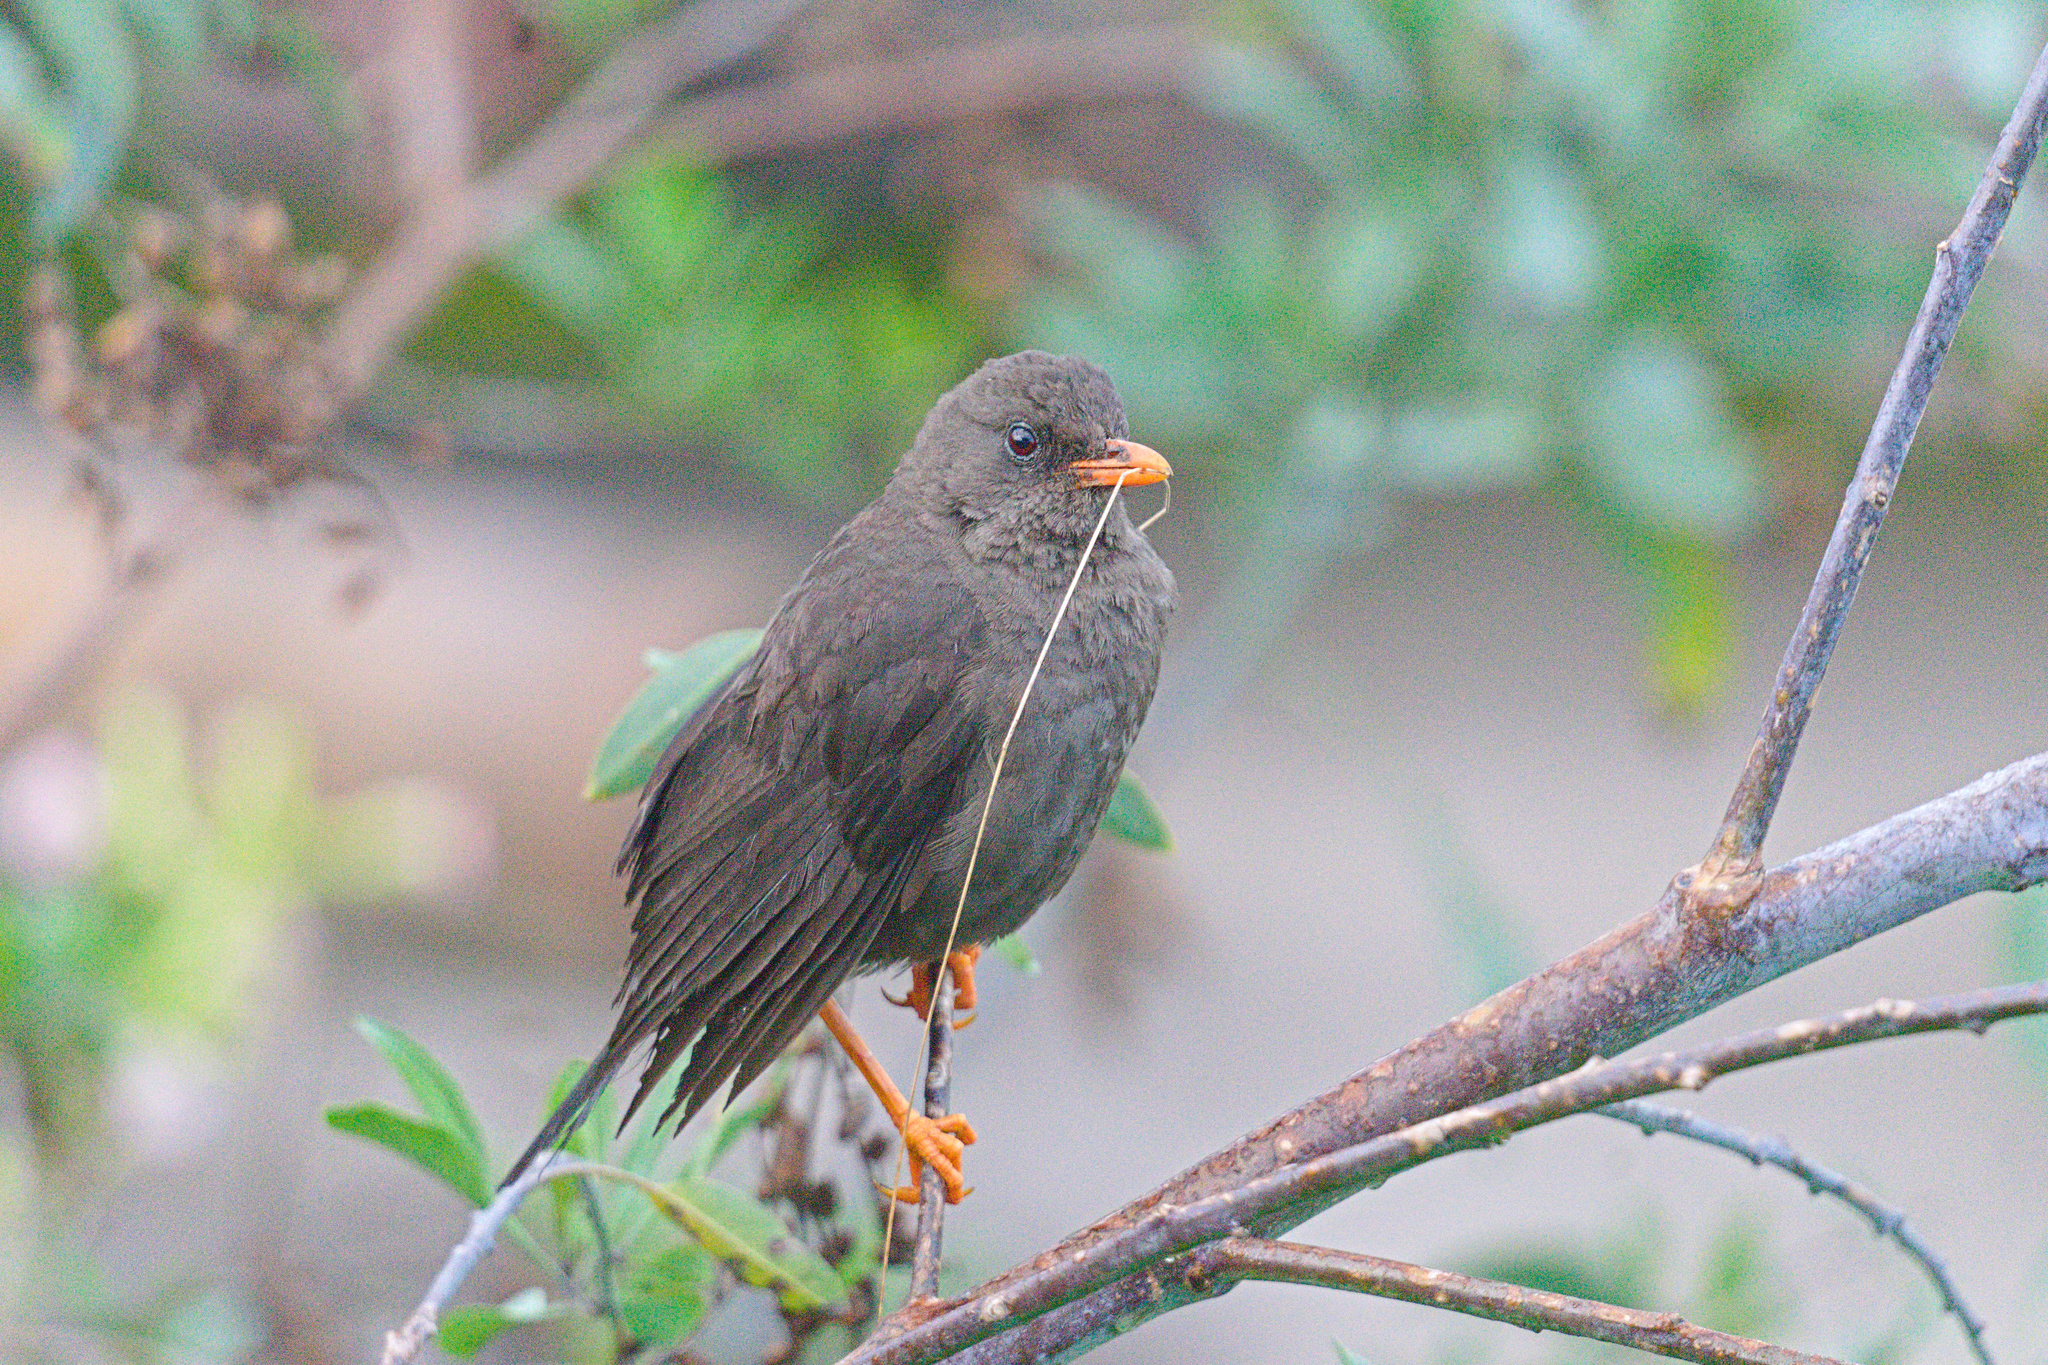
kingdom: Animalia
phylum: Chordata
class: Aves
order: Passeriformes
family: Turdidae
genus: Turdus
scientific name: Turdus fuscater
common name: Great thrush
